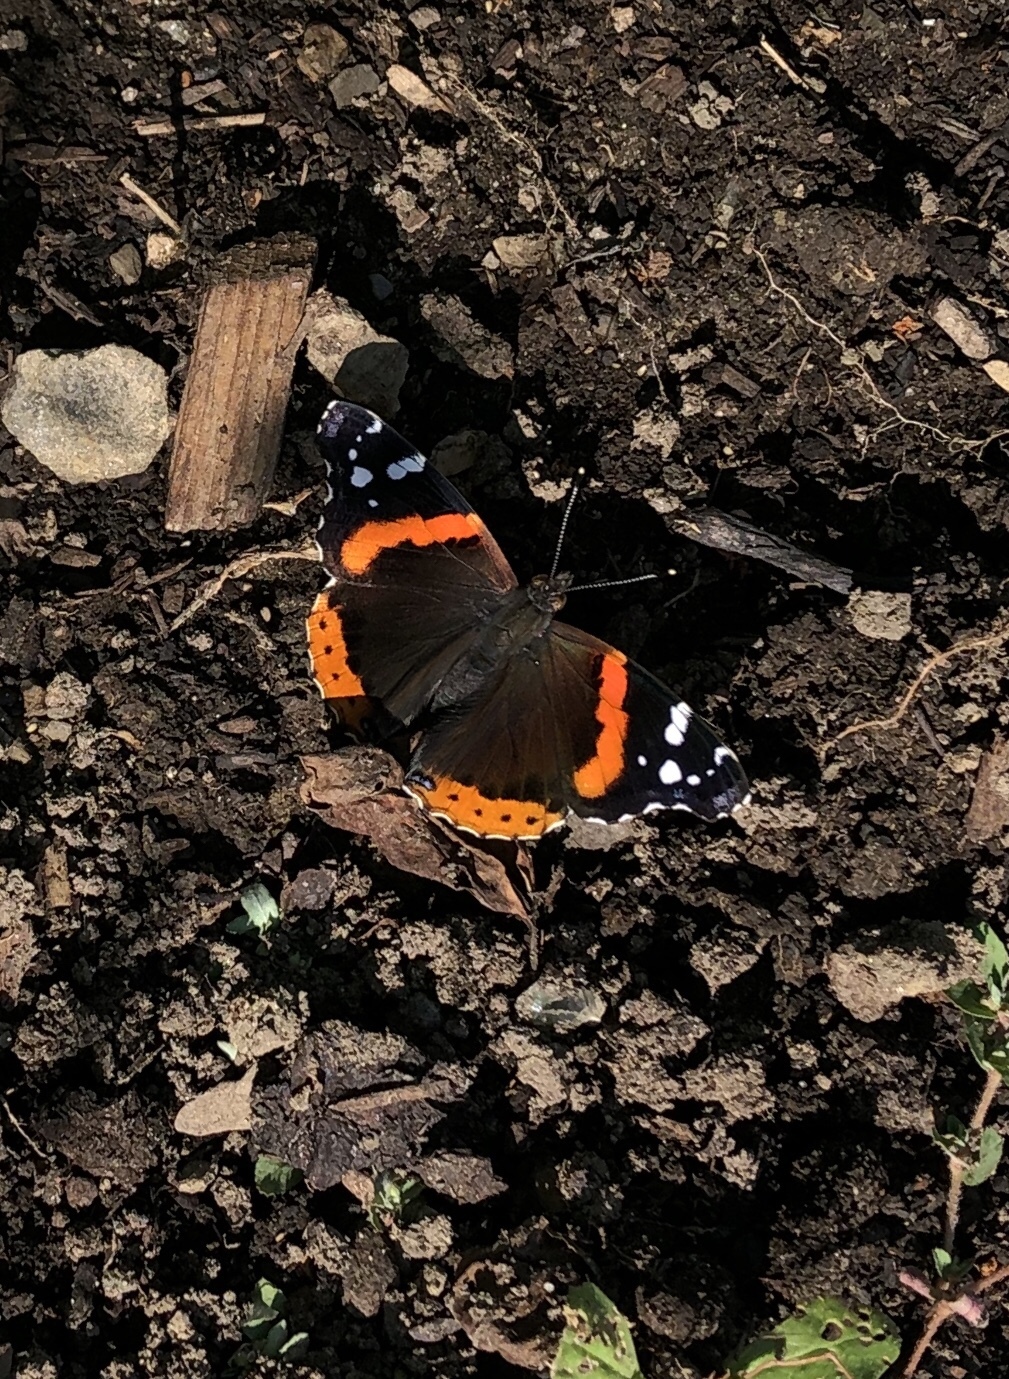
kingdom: Animalia
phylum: Arthropoda
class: Insecta
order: Lepidoptera
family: Nymphalidae
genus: Vanessa
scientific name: Vanessa atalanta
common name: Red admiral
